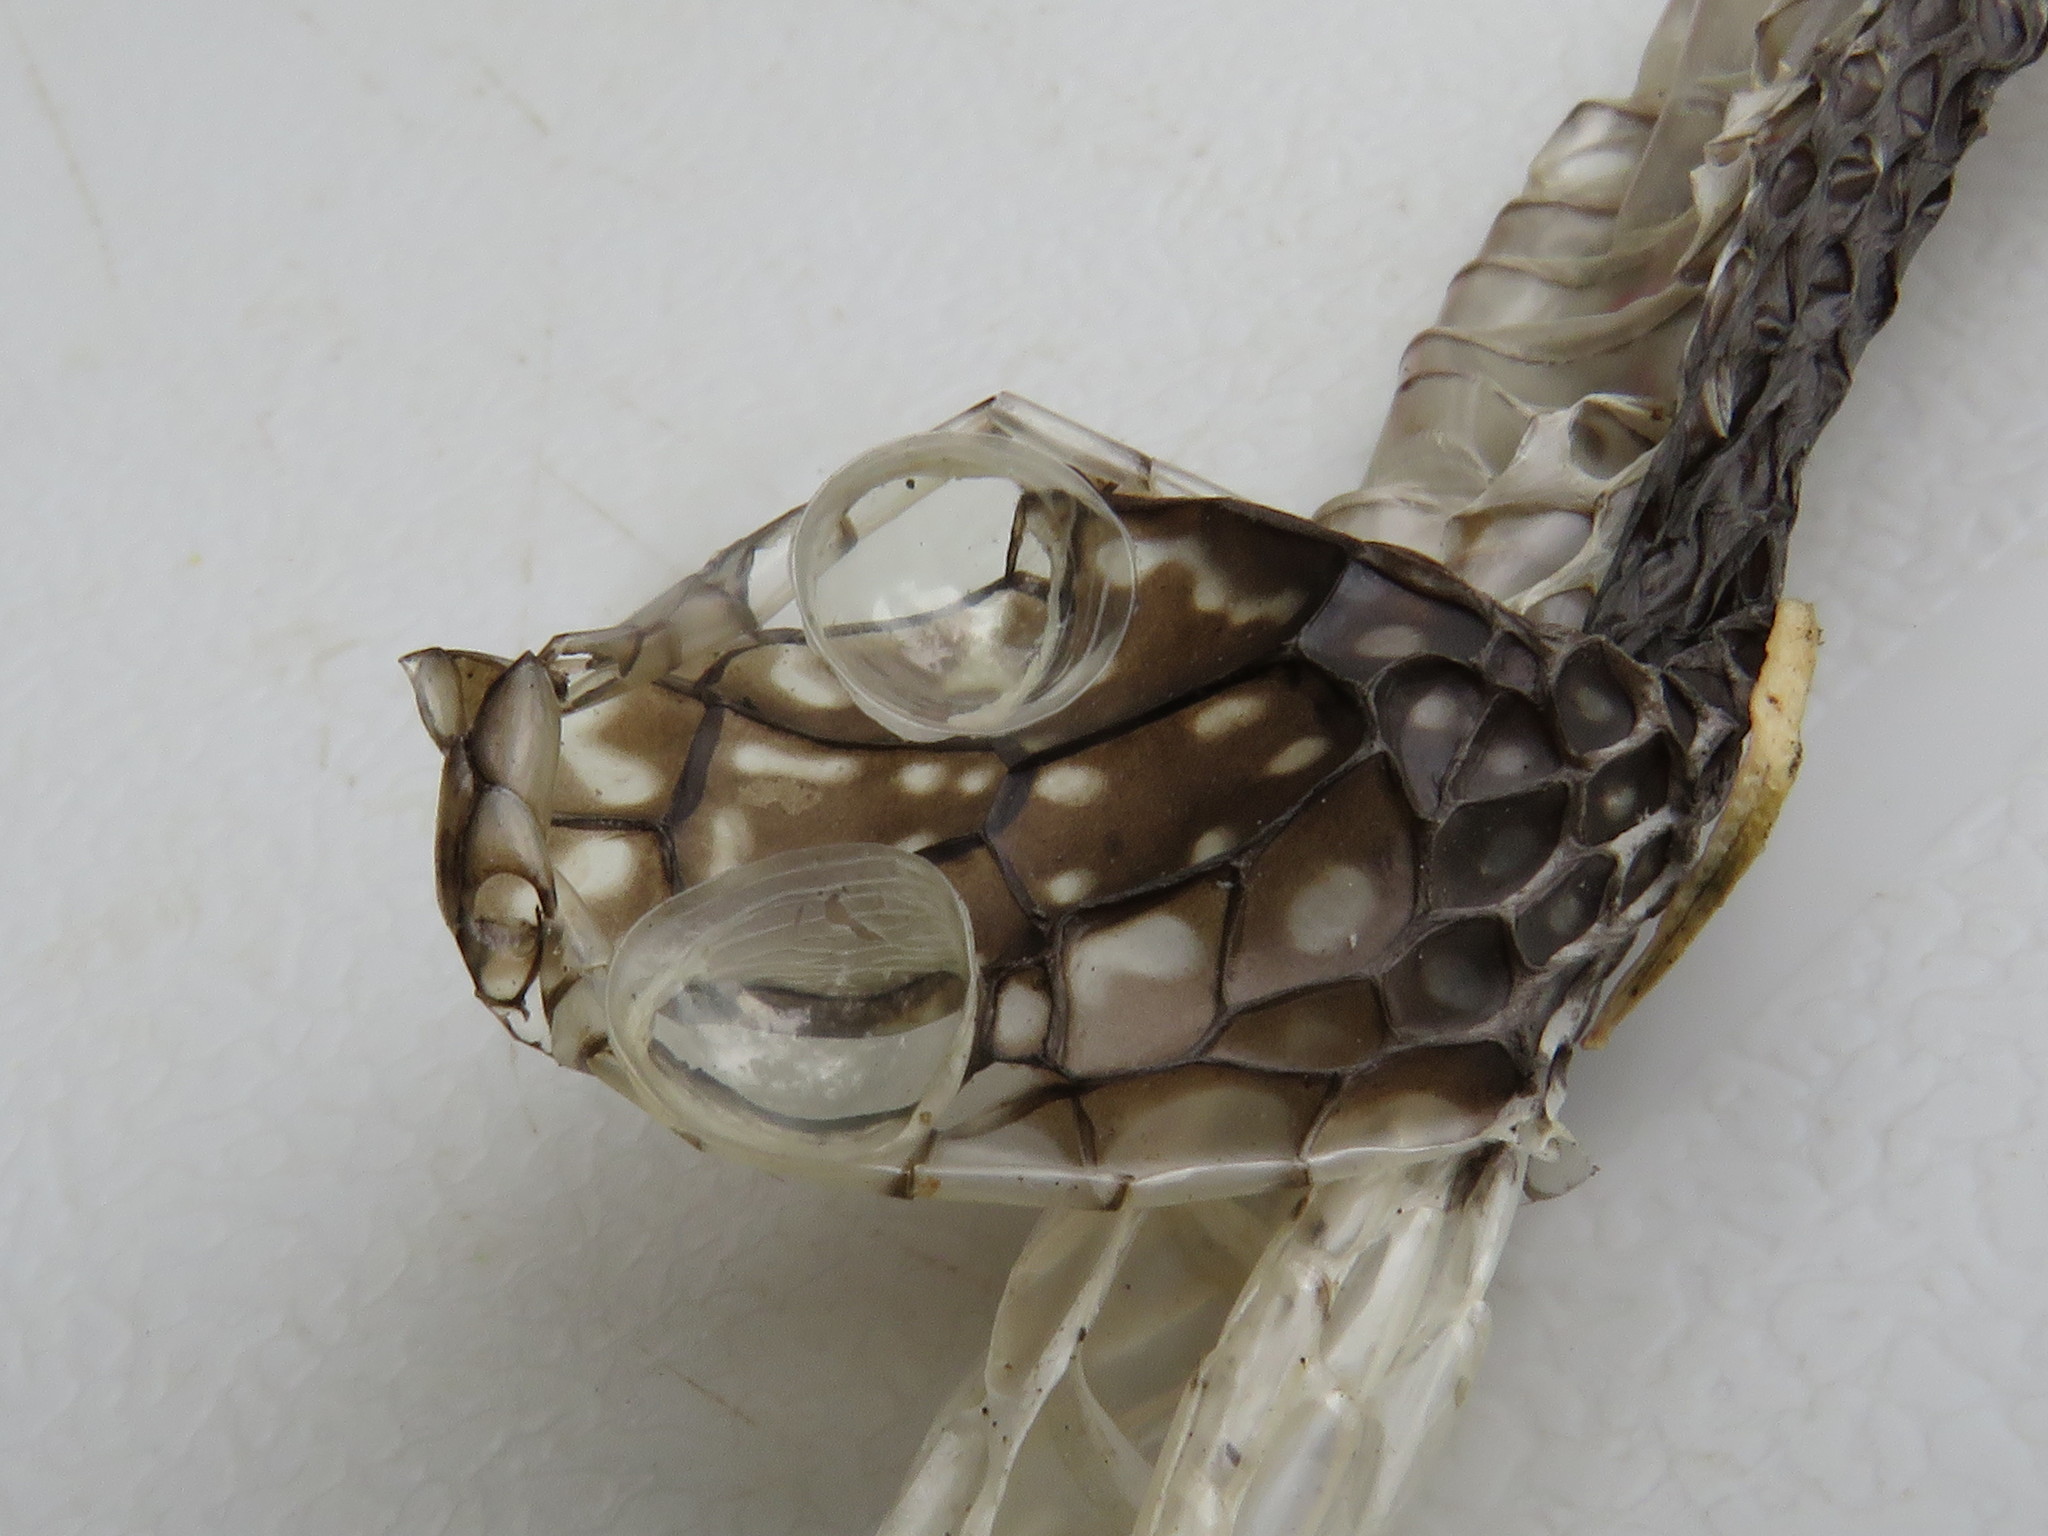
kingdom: Animalia
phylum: Chordata
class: Squamata
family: Colubridae
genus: Dispholidus
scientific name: Dispholidus typus
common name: Boomslang
